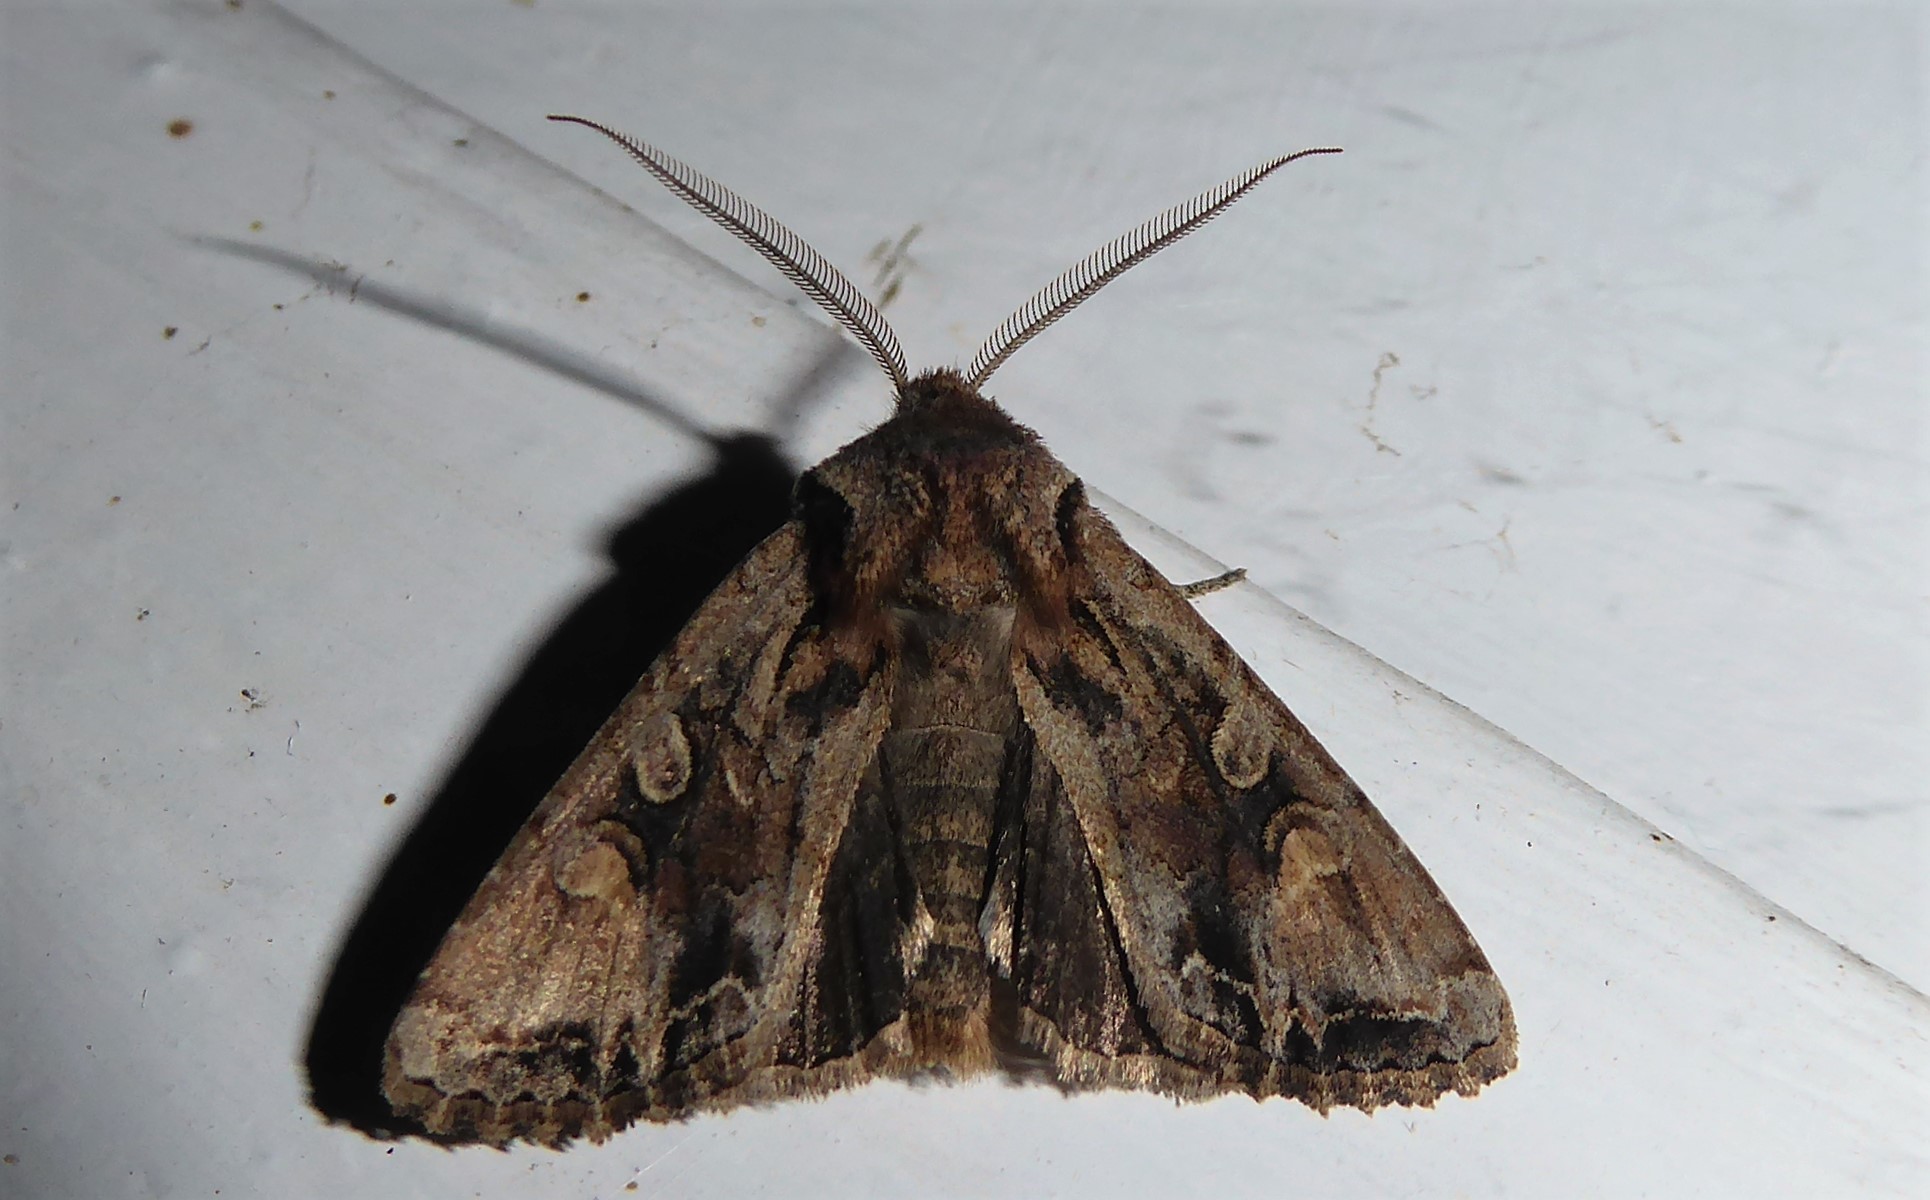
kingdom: Animalia
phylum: Arthropoda
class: Insecta
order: Lepidoptera
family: Noctuidae
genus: Ichneutica
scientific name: Ichneutica skelloni
